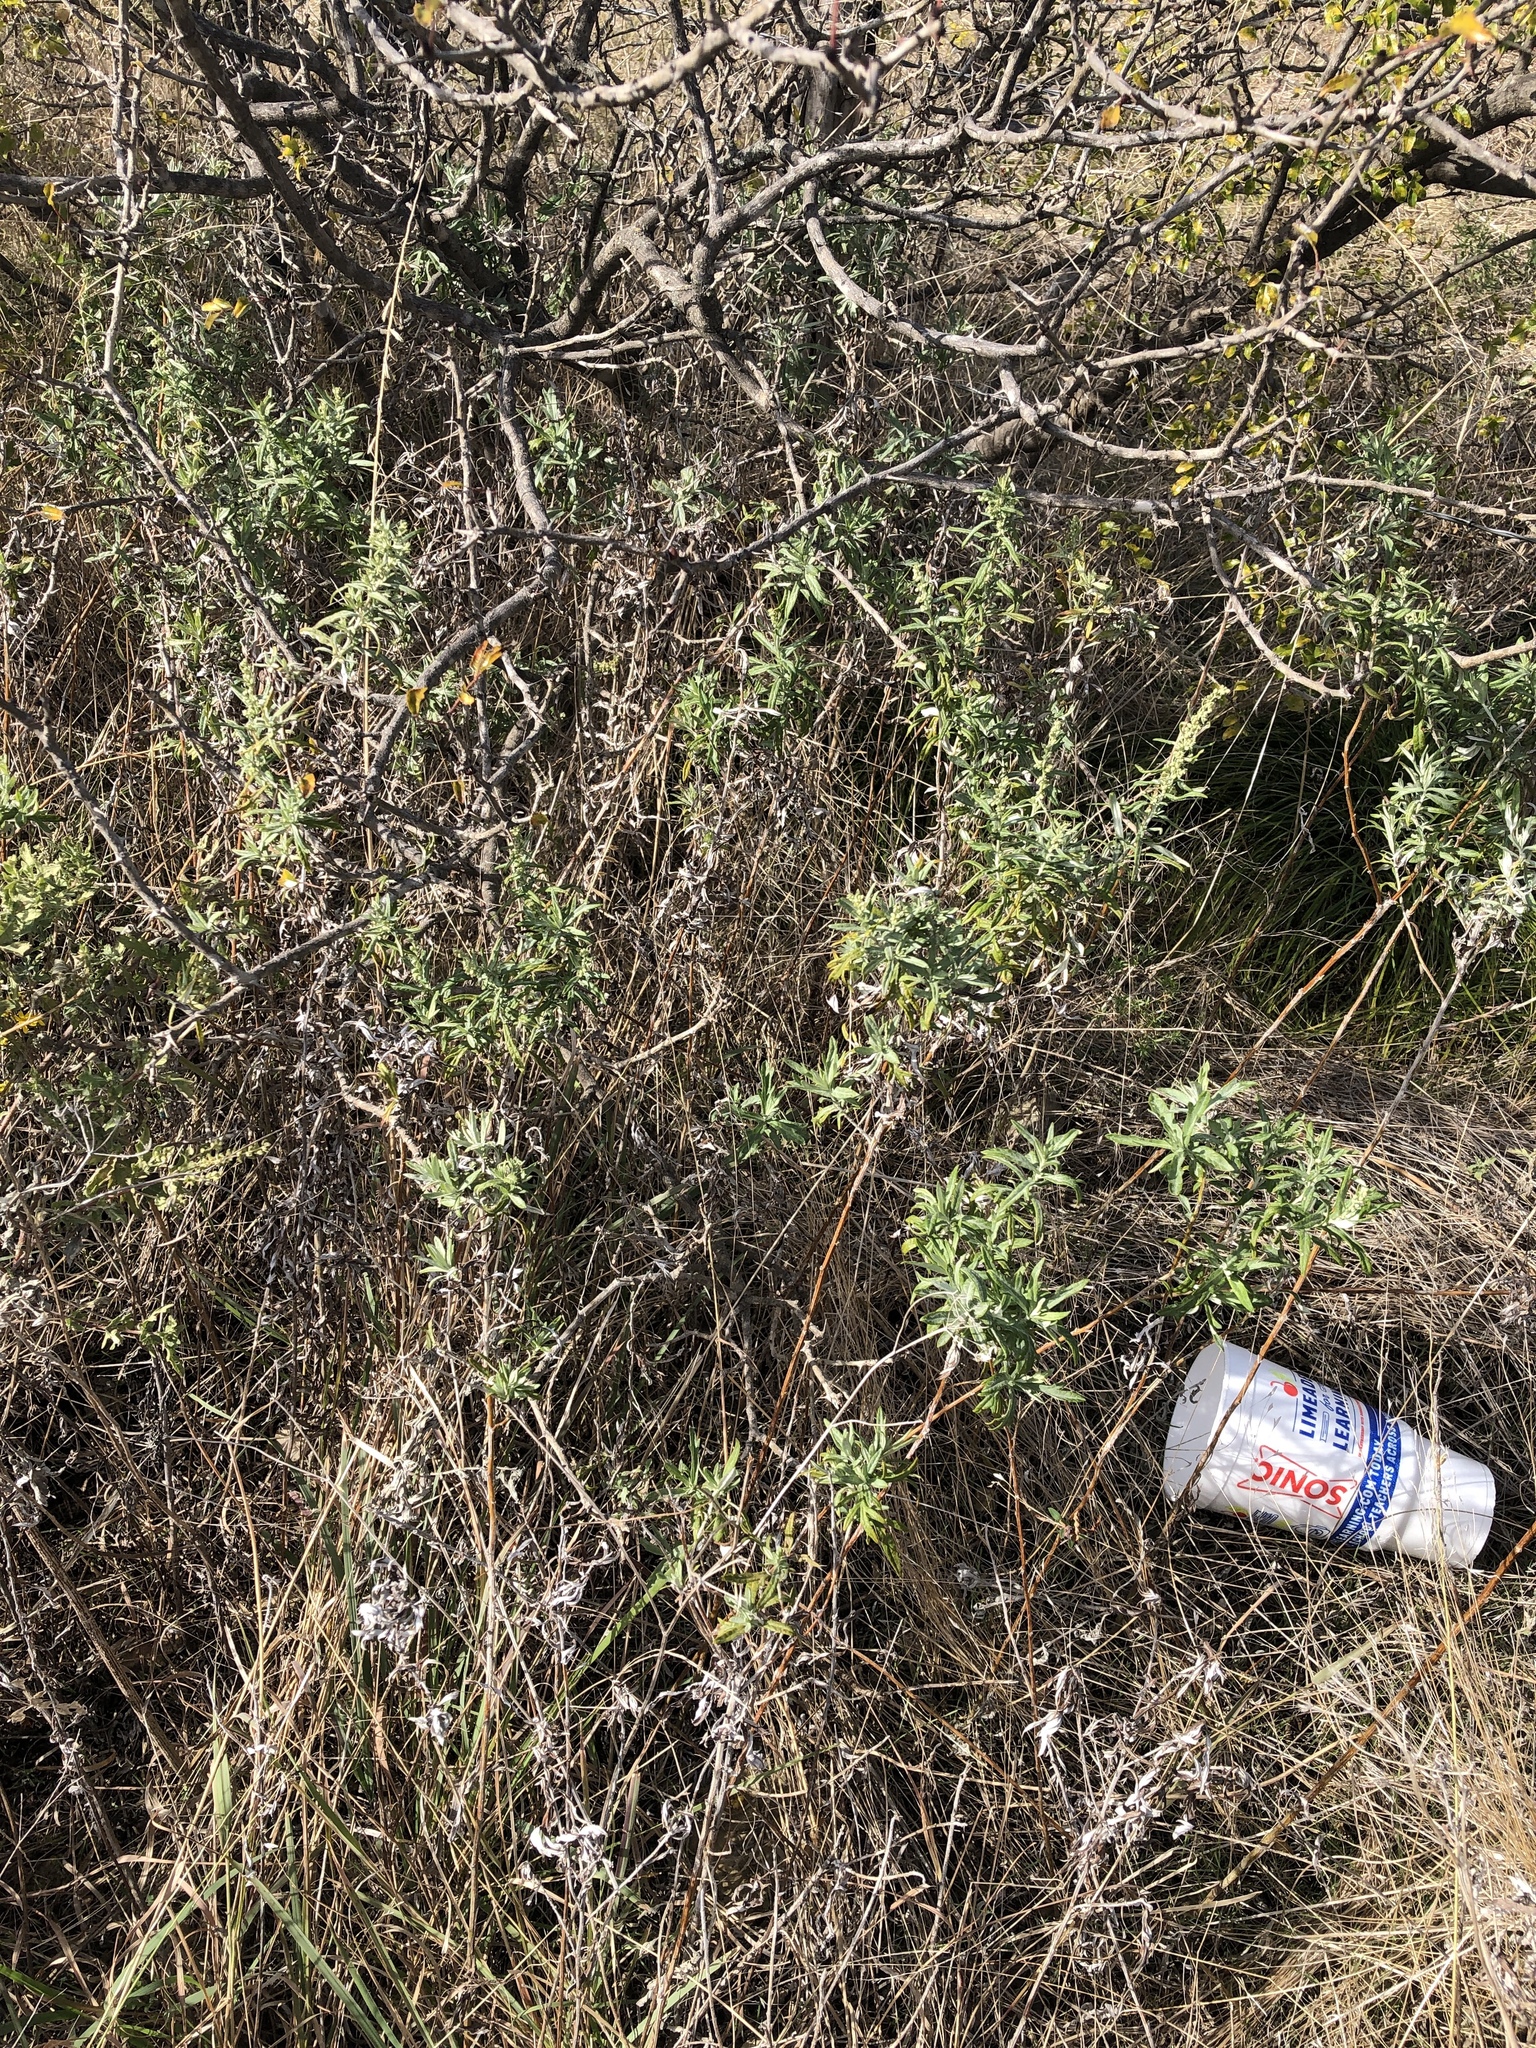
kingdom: Plantae
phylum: Tracheophyta
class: Magnoliopsida
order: Asterales
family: Asteraceae
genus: Artemisia
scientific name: Artemisia ludoviciana
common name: Western mugwort
